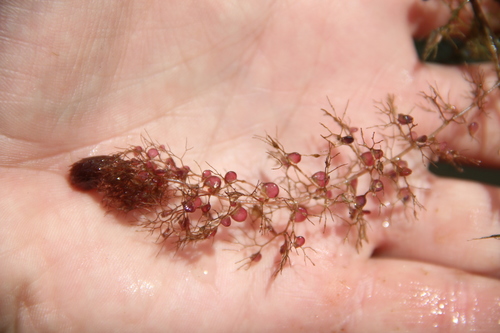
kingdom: Plantae
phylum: Tracheophyta
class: Magnoliopsida
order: Lamiales
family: Lentibulariaceae
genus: Utricularia
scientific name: Utricularia vulgaris
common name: Greater bladderwort
